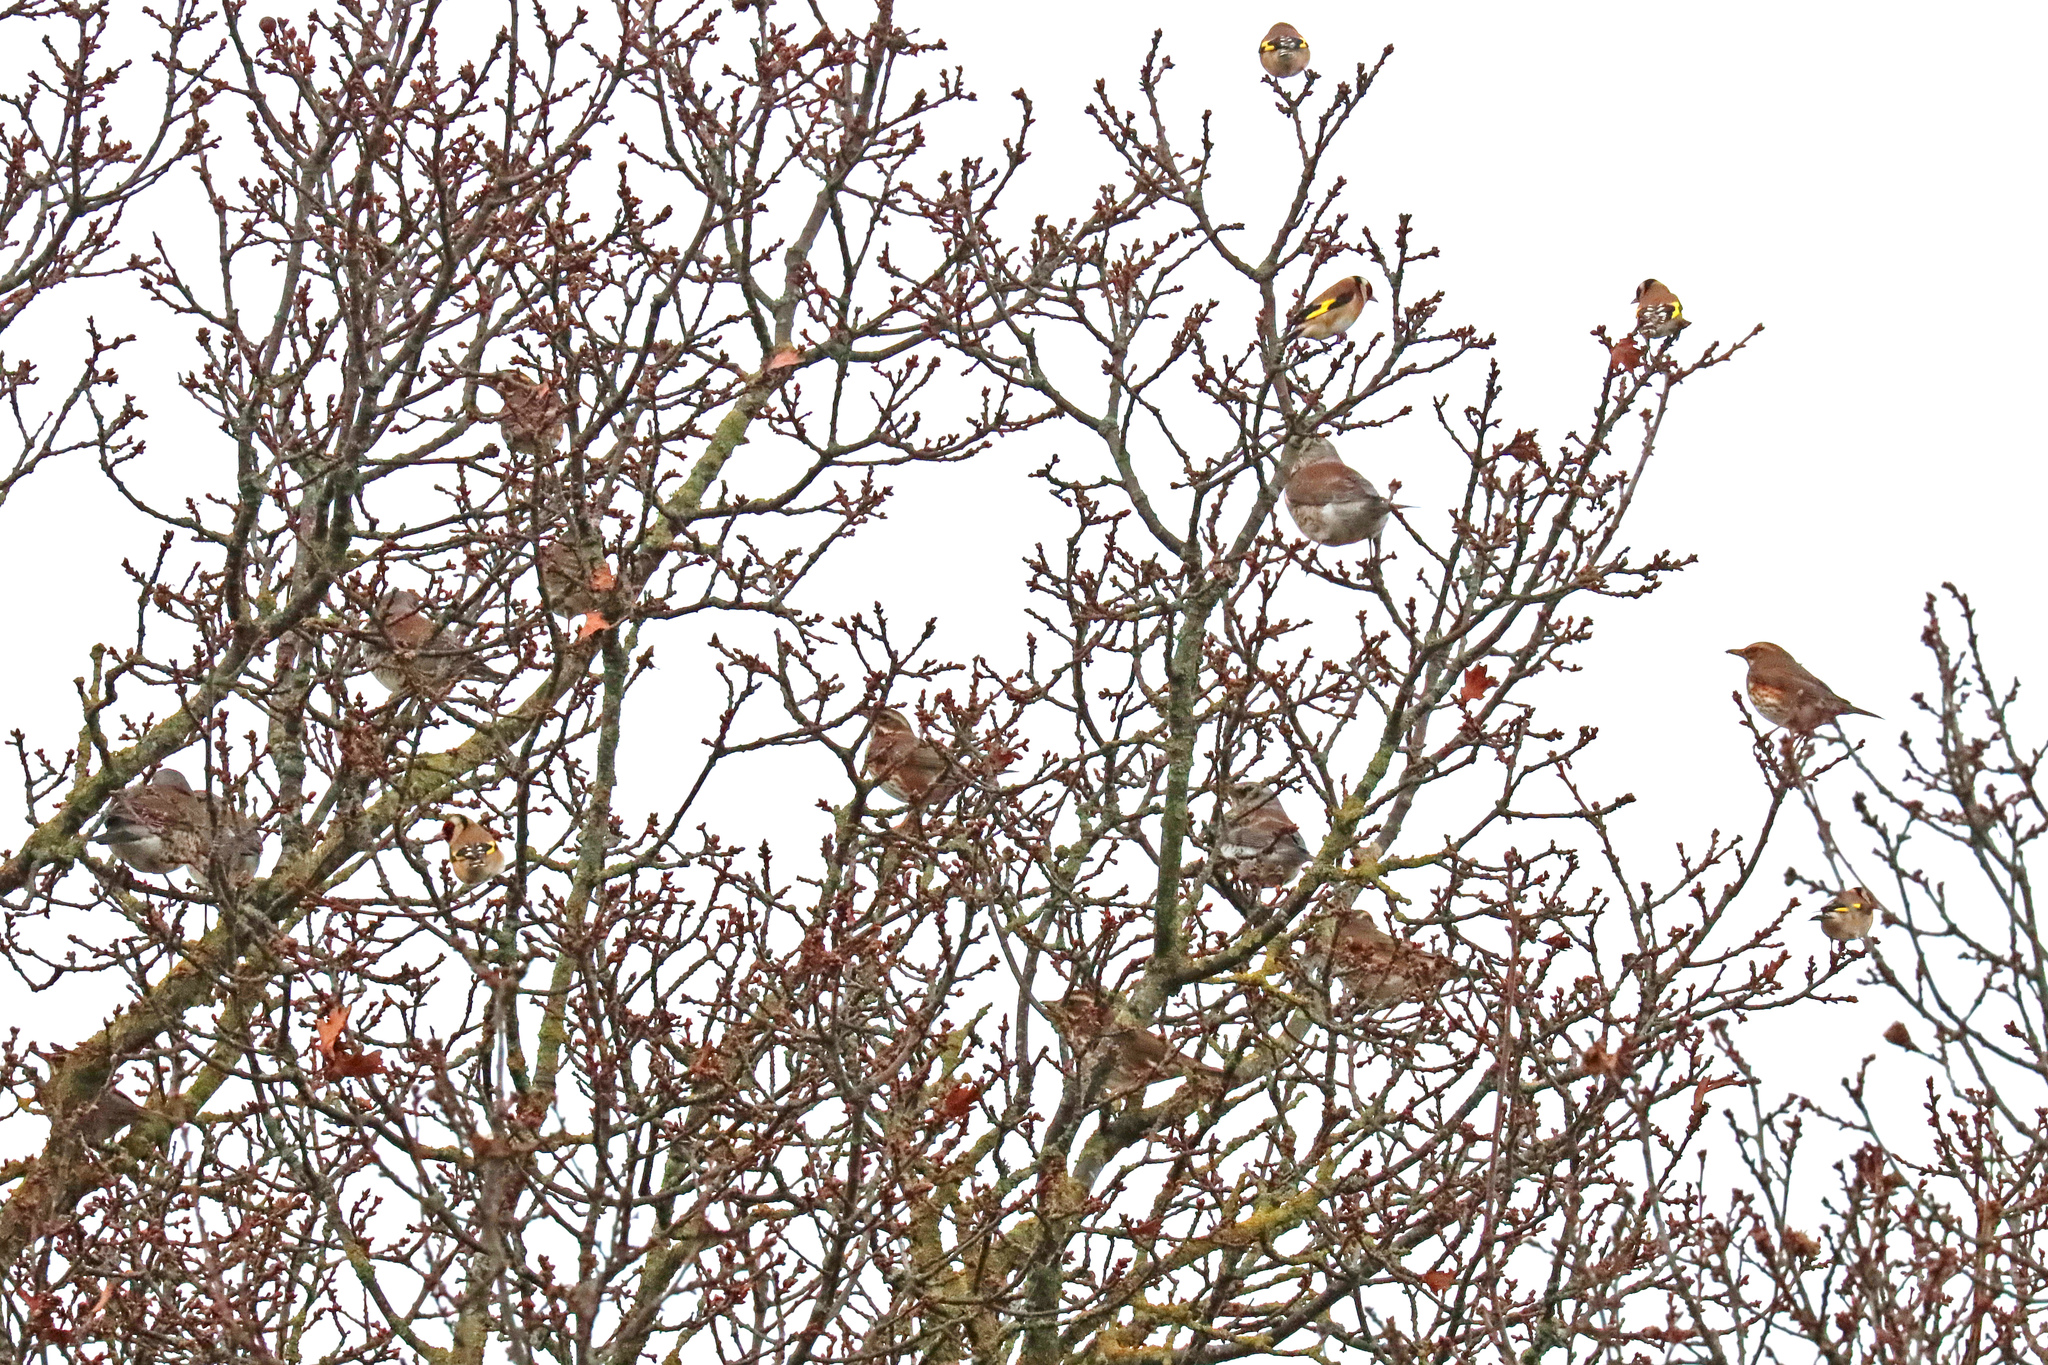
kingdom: Animalia
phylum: Chordata
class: Aves
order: Passeriformes
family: Fringillidae
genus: Carduelis
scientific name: Carduelis carduelis
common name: European goldfinch
